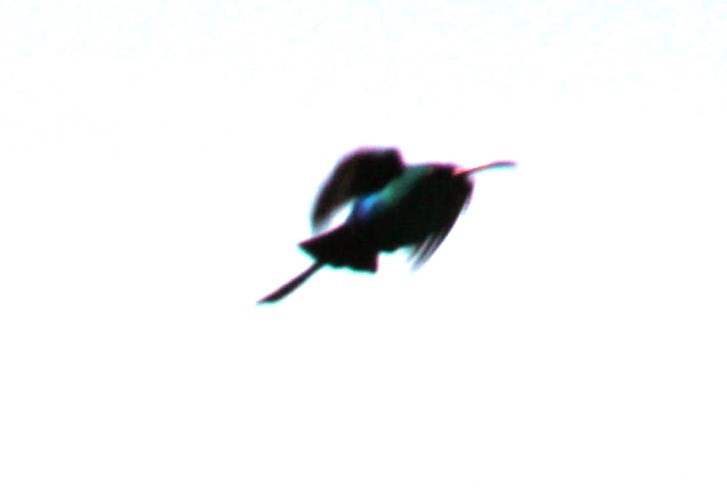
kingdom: Animalia
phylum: Chordata
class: Aves
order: Passeriformes
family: Nectariniidae
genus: Nectarinia
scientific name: Nectarinia famosa
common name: Malachite sunbird
